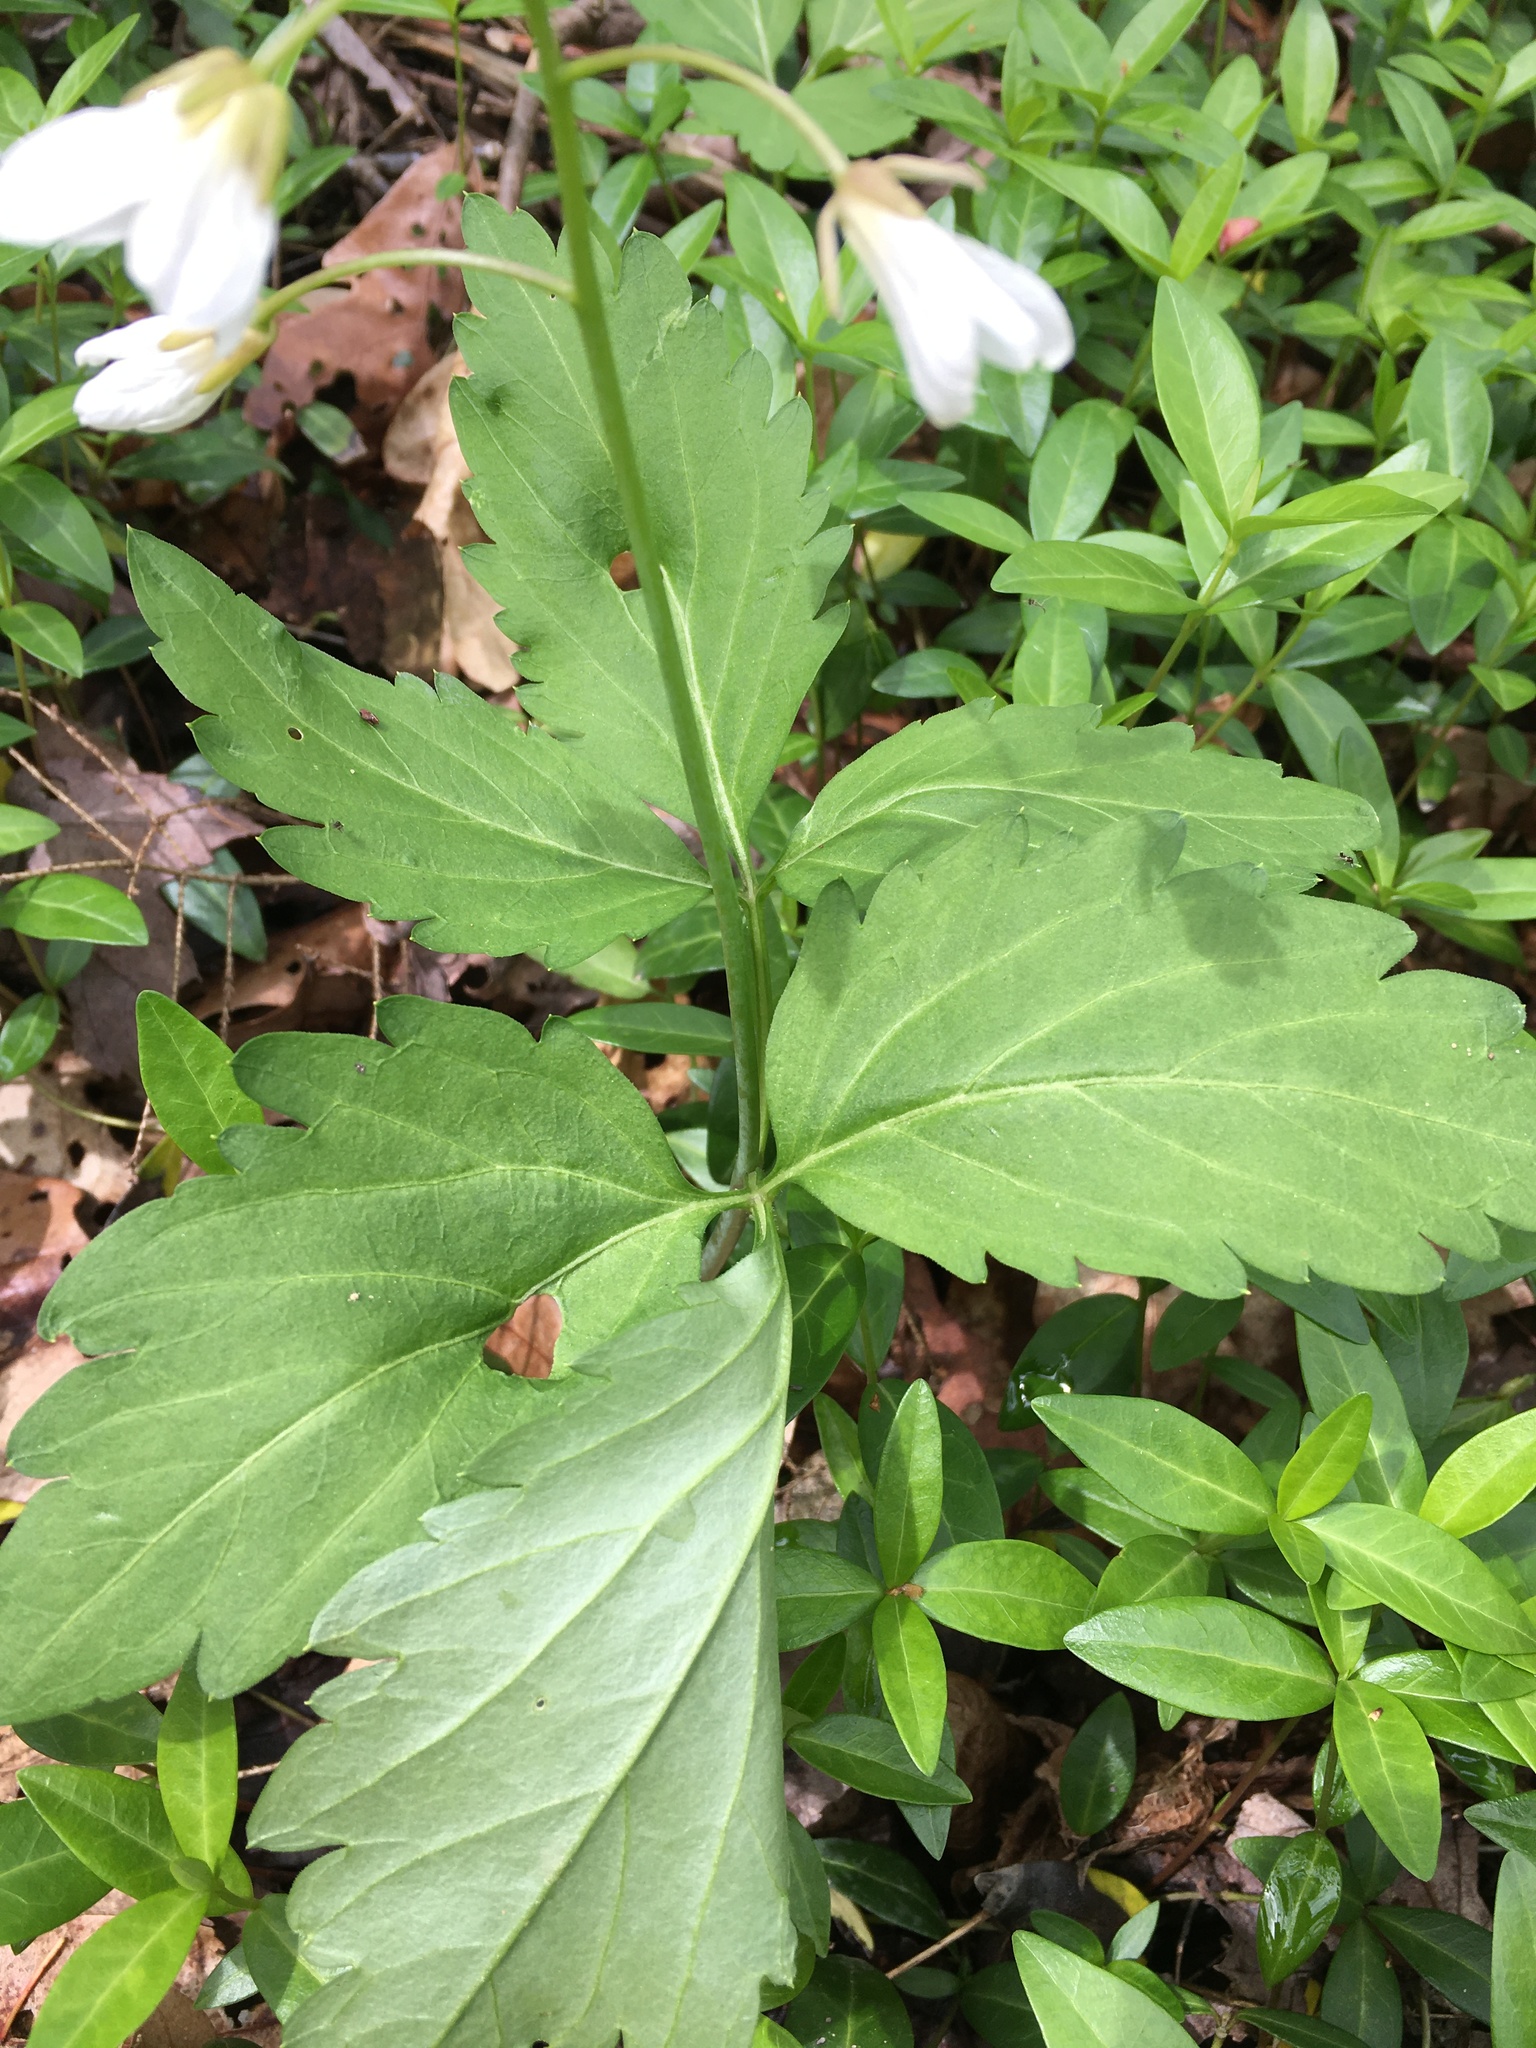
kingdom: Plantae
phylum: Tracheophyta
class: Magnoliopsida
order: Brassicales
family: Brassicaceae
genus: Cardamine
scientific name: Cardamine diphylla
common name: Broad-leaved toothwort
